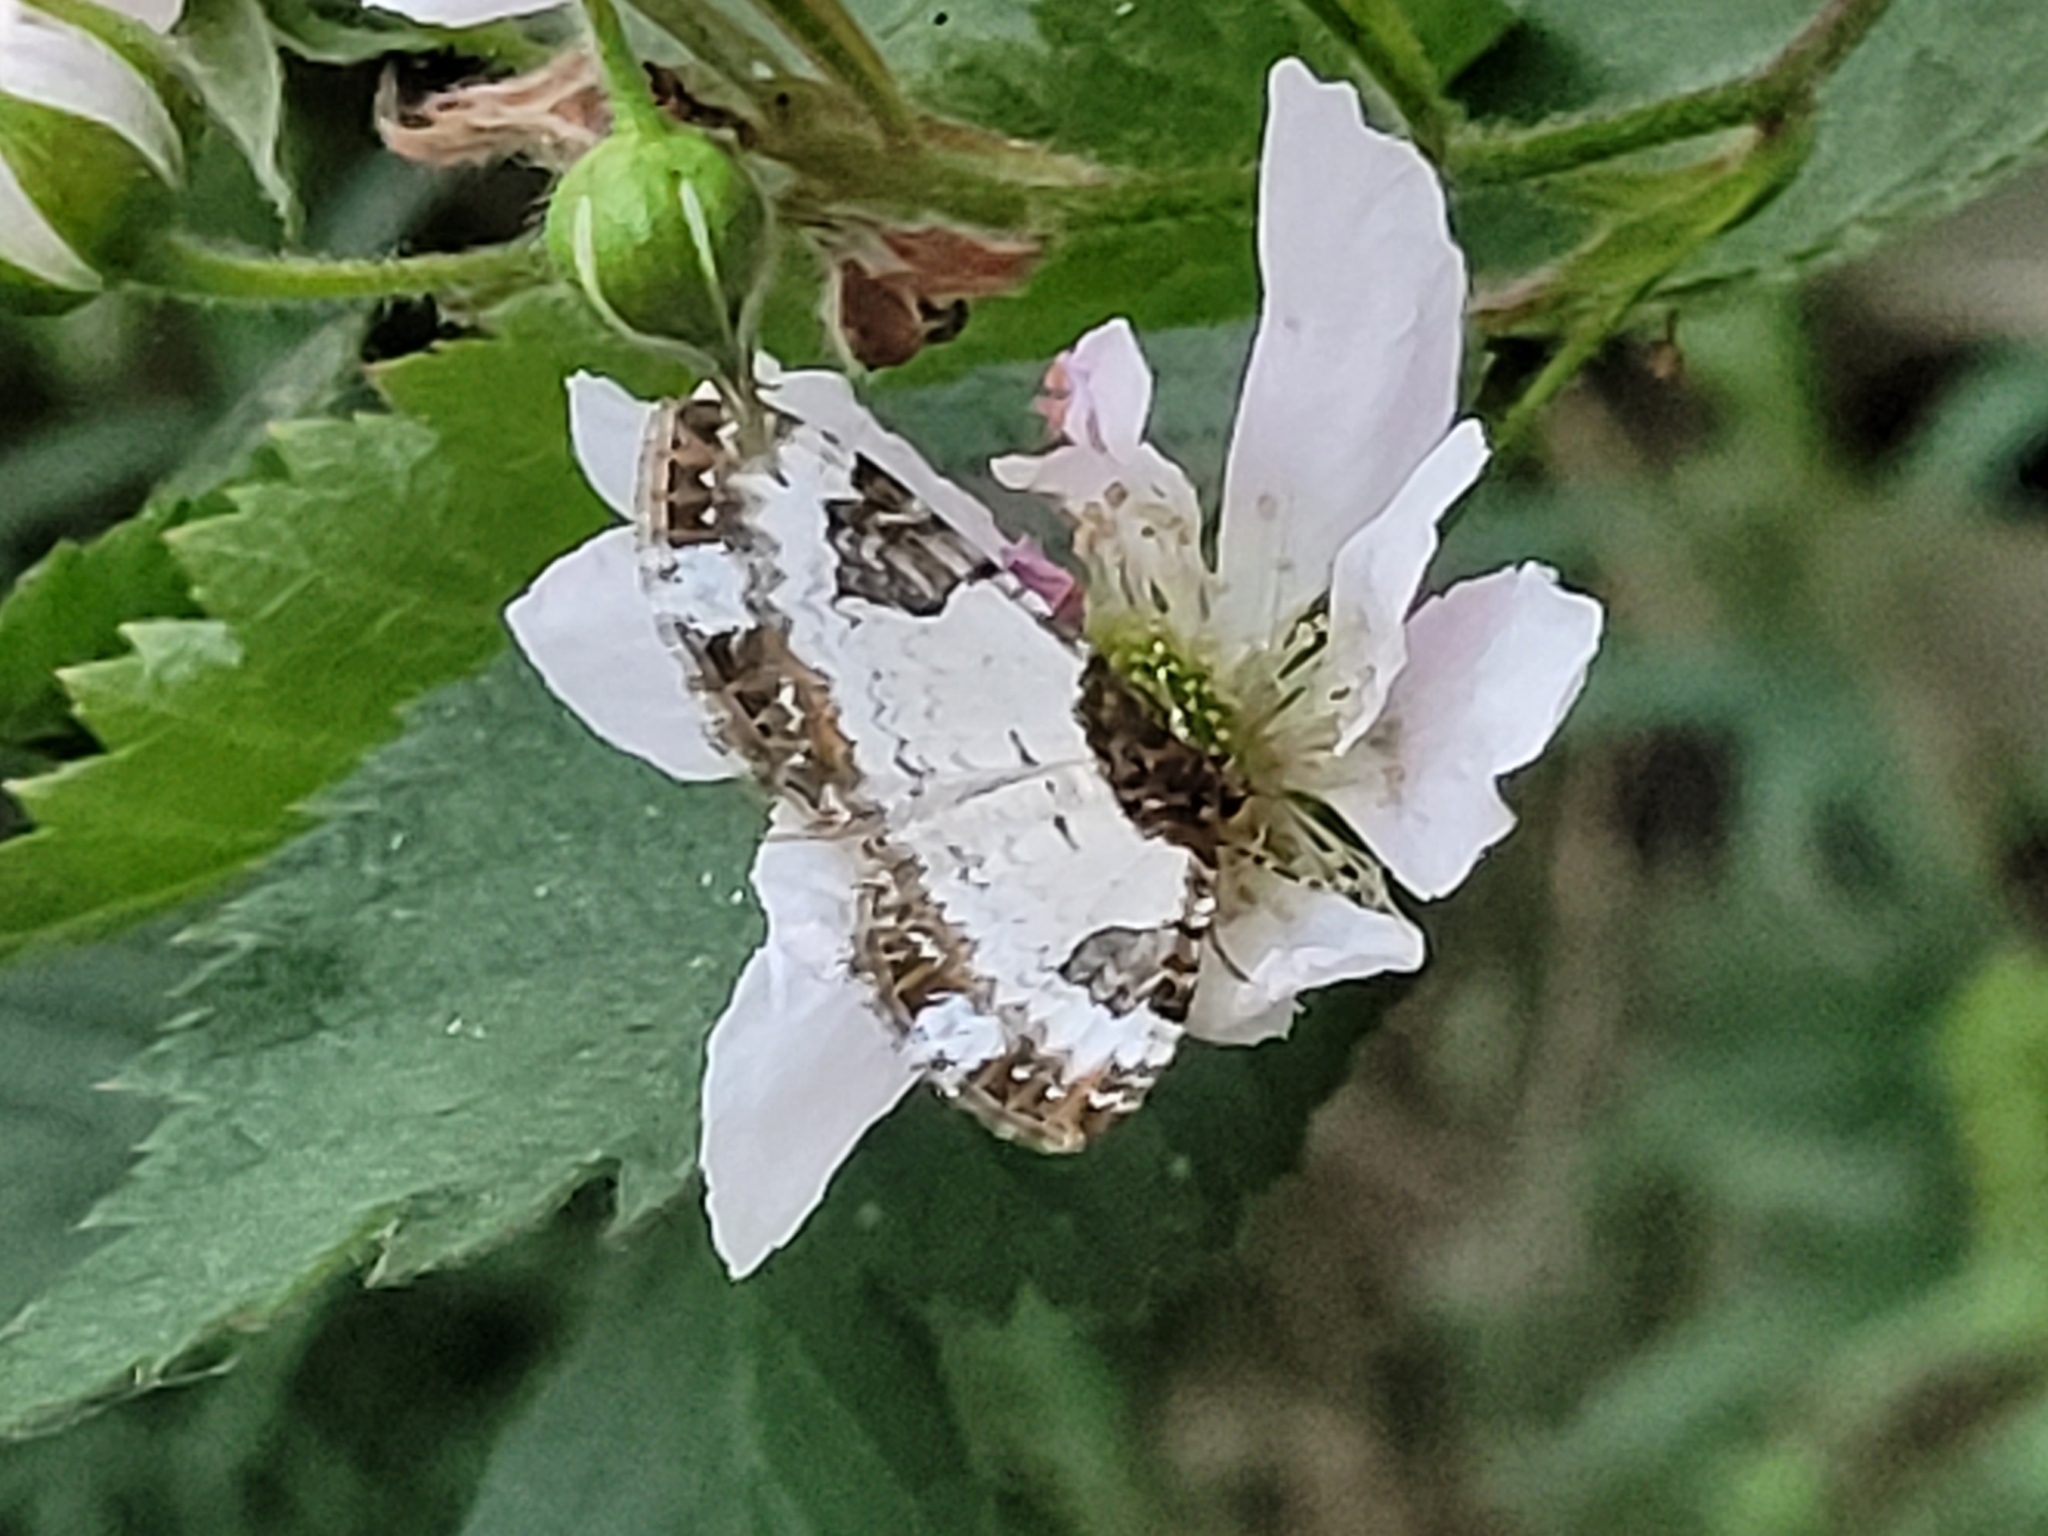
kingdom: Animalia
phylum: Arthropoda
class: Insecta
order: Lepidoptera
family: Geometridae
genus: Melanthia
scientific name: Melanthia procellata
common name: Pretty chalk carpet
